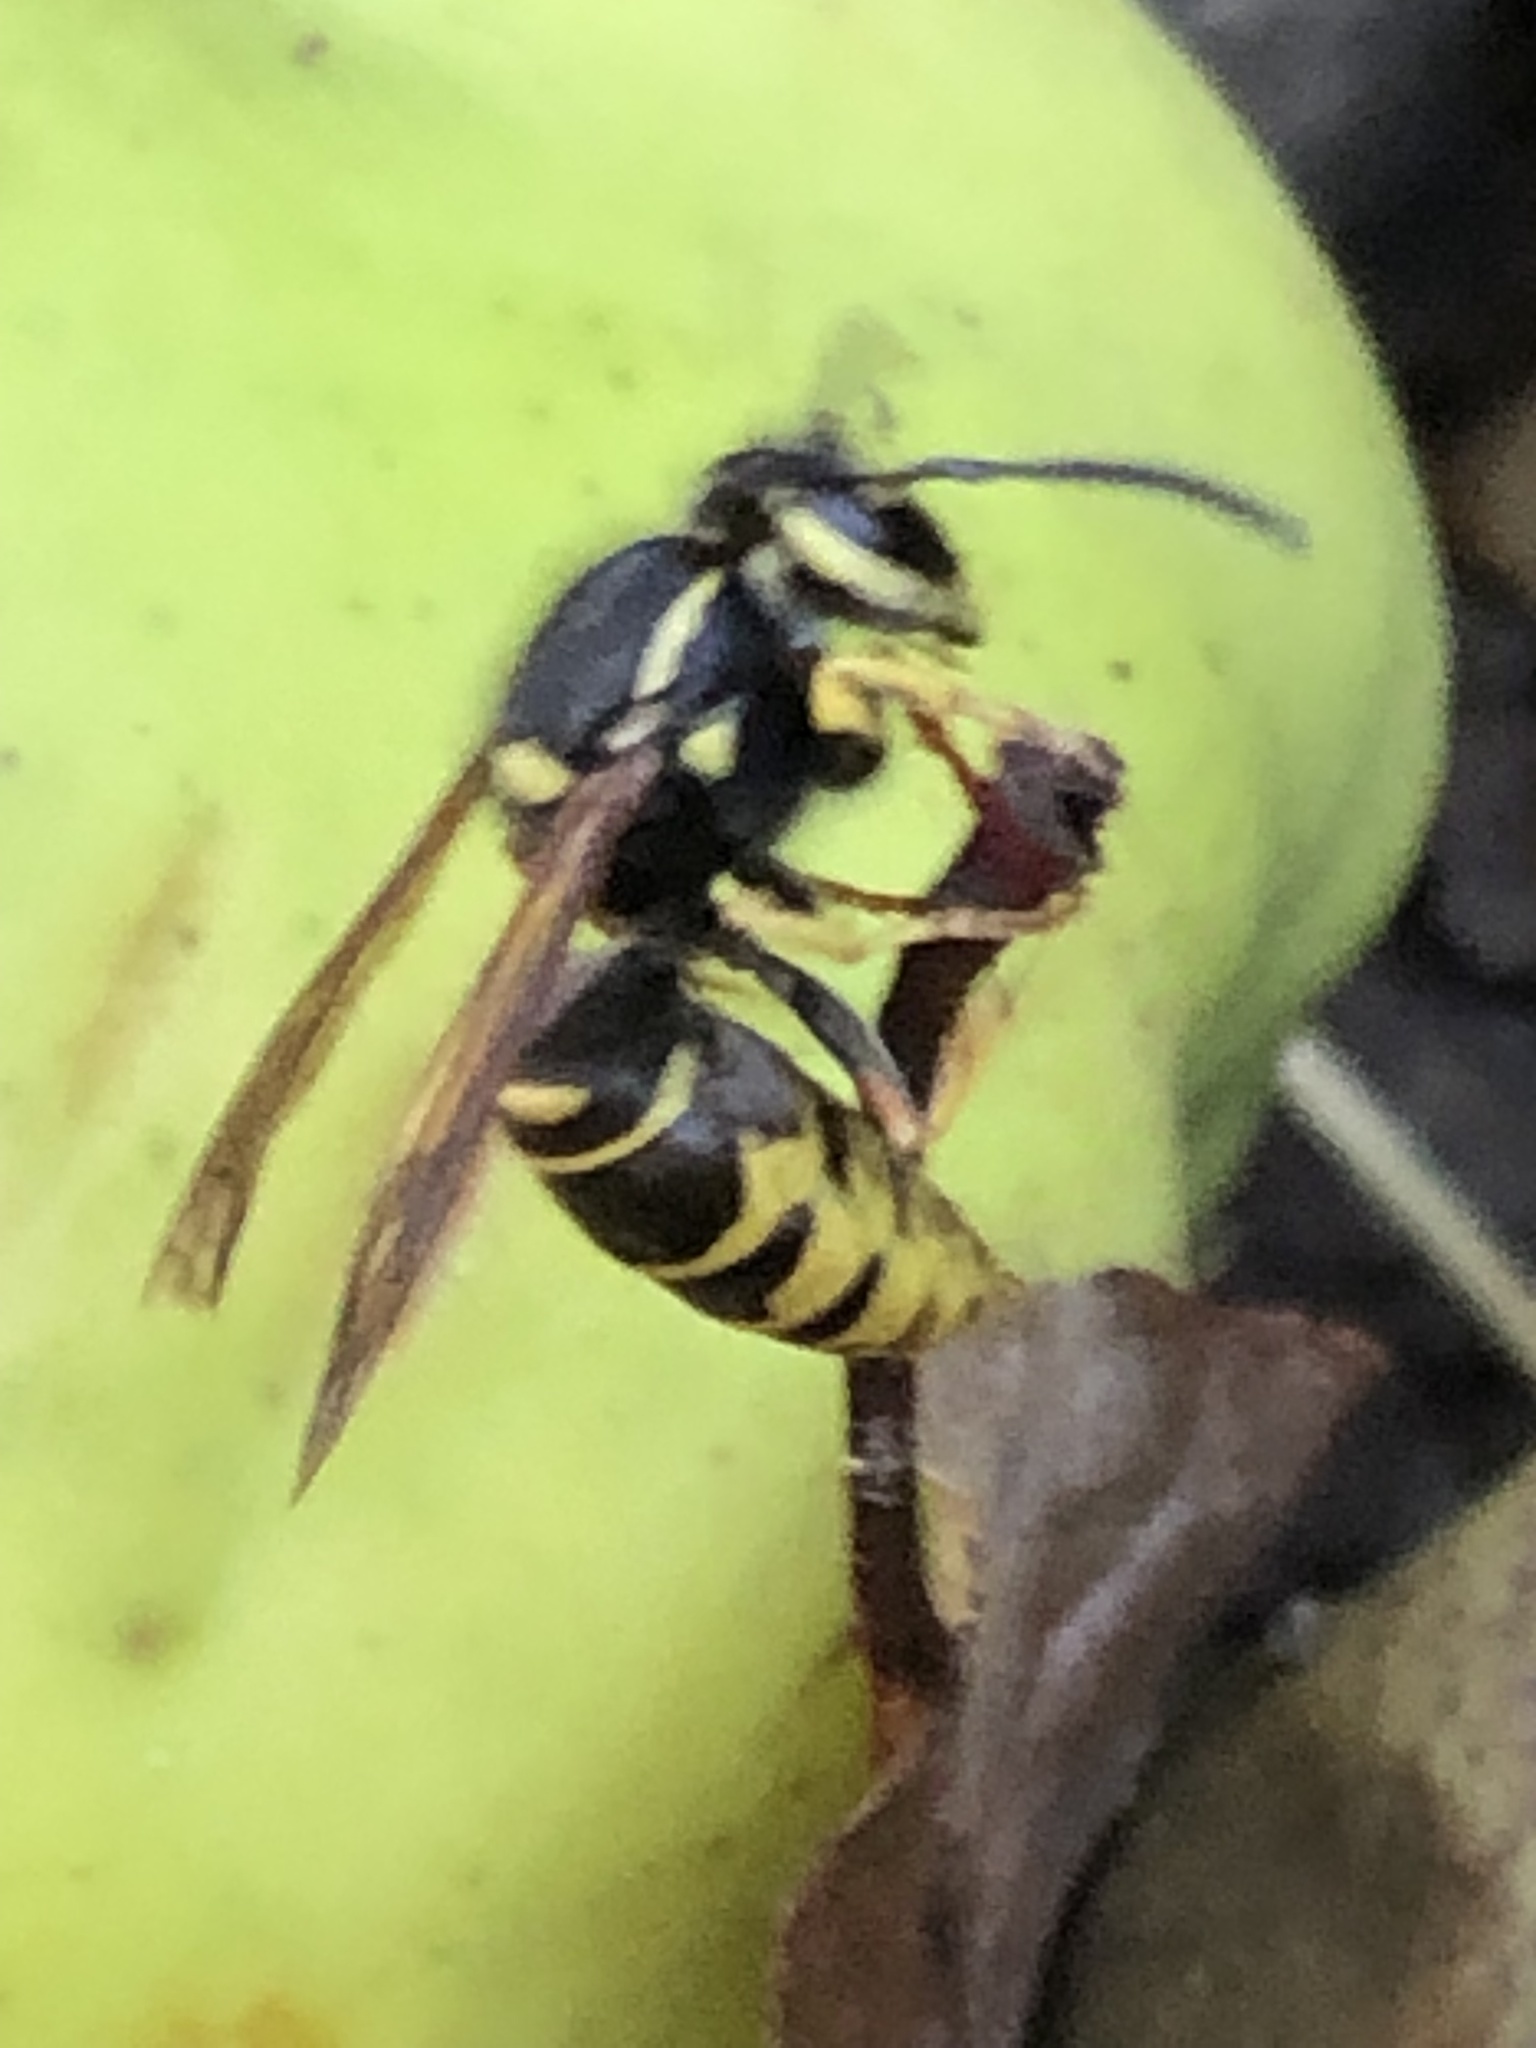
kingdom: Animalia
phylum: Arthropoda
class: Insecta
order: Hymenoptera
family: Vespidae
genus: Vespula
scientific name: Vespula vidua
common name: Widow yellowjacket
